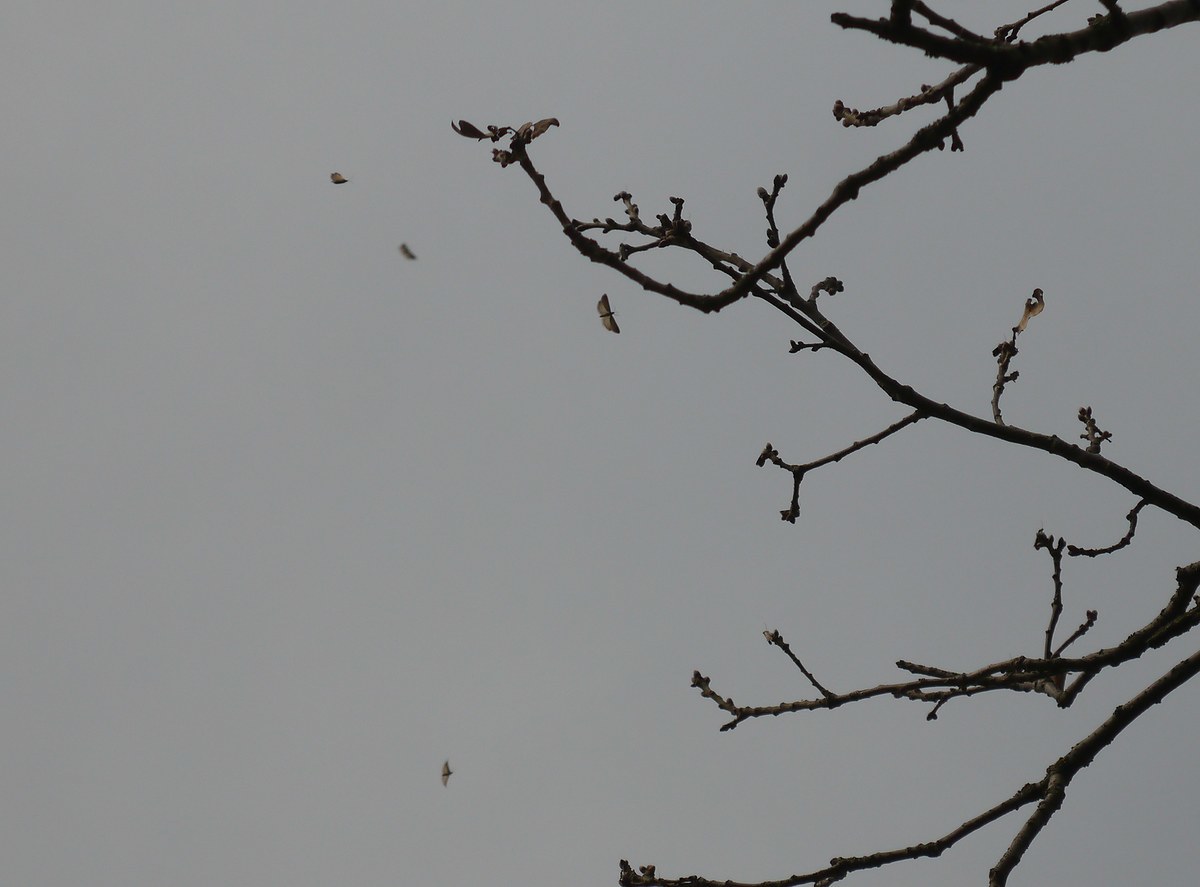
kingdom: Animalia
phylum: Arthropoda
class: Insecta
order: Lepidoptera
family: Tortricidae
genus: Tortricodes
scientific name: Tortricodes alternella
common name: Winter shade
